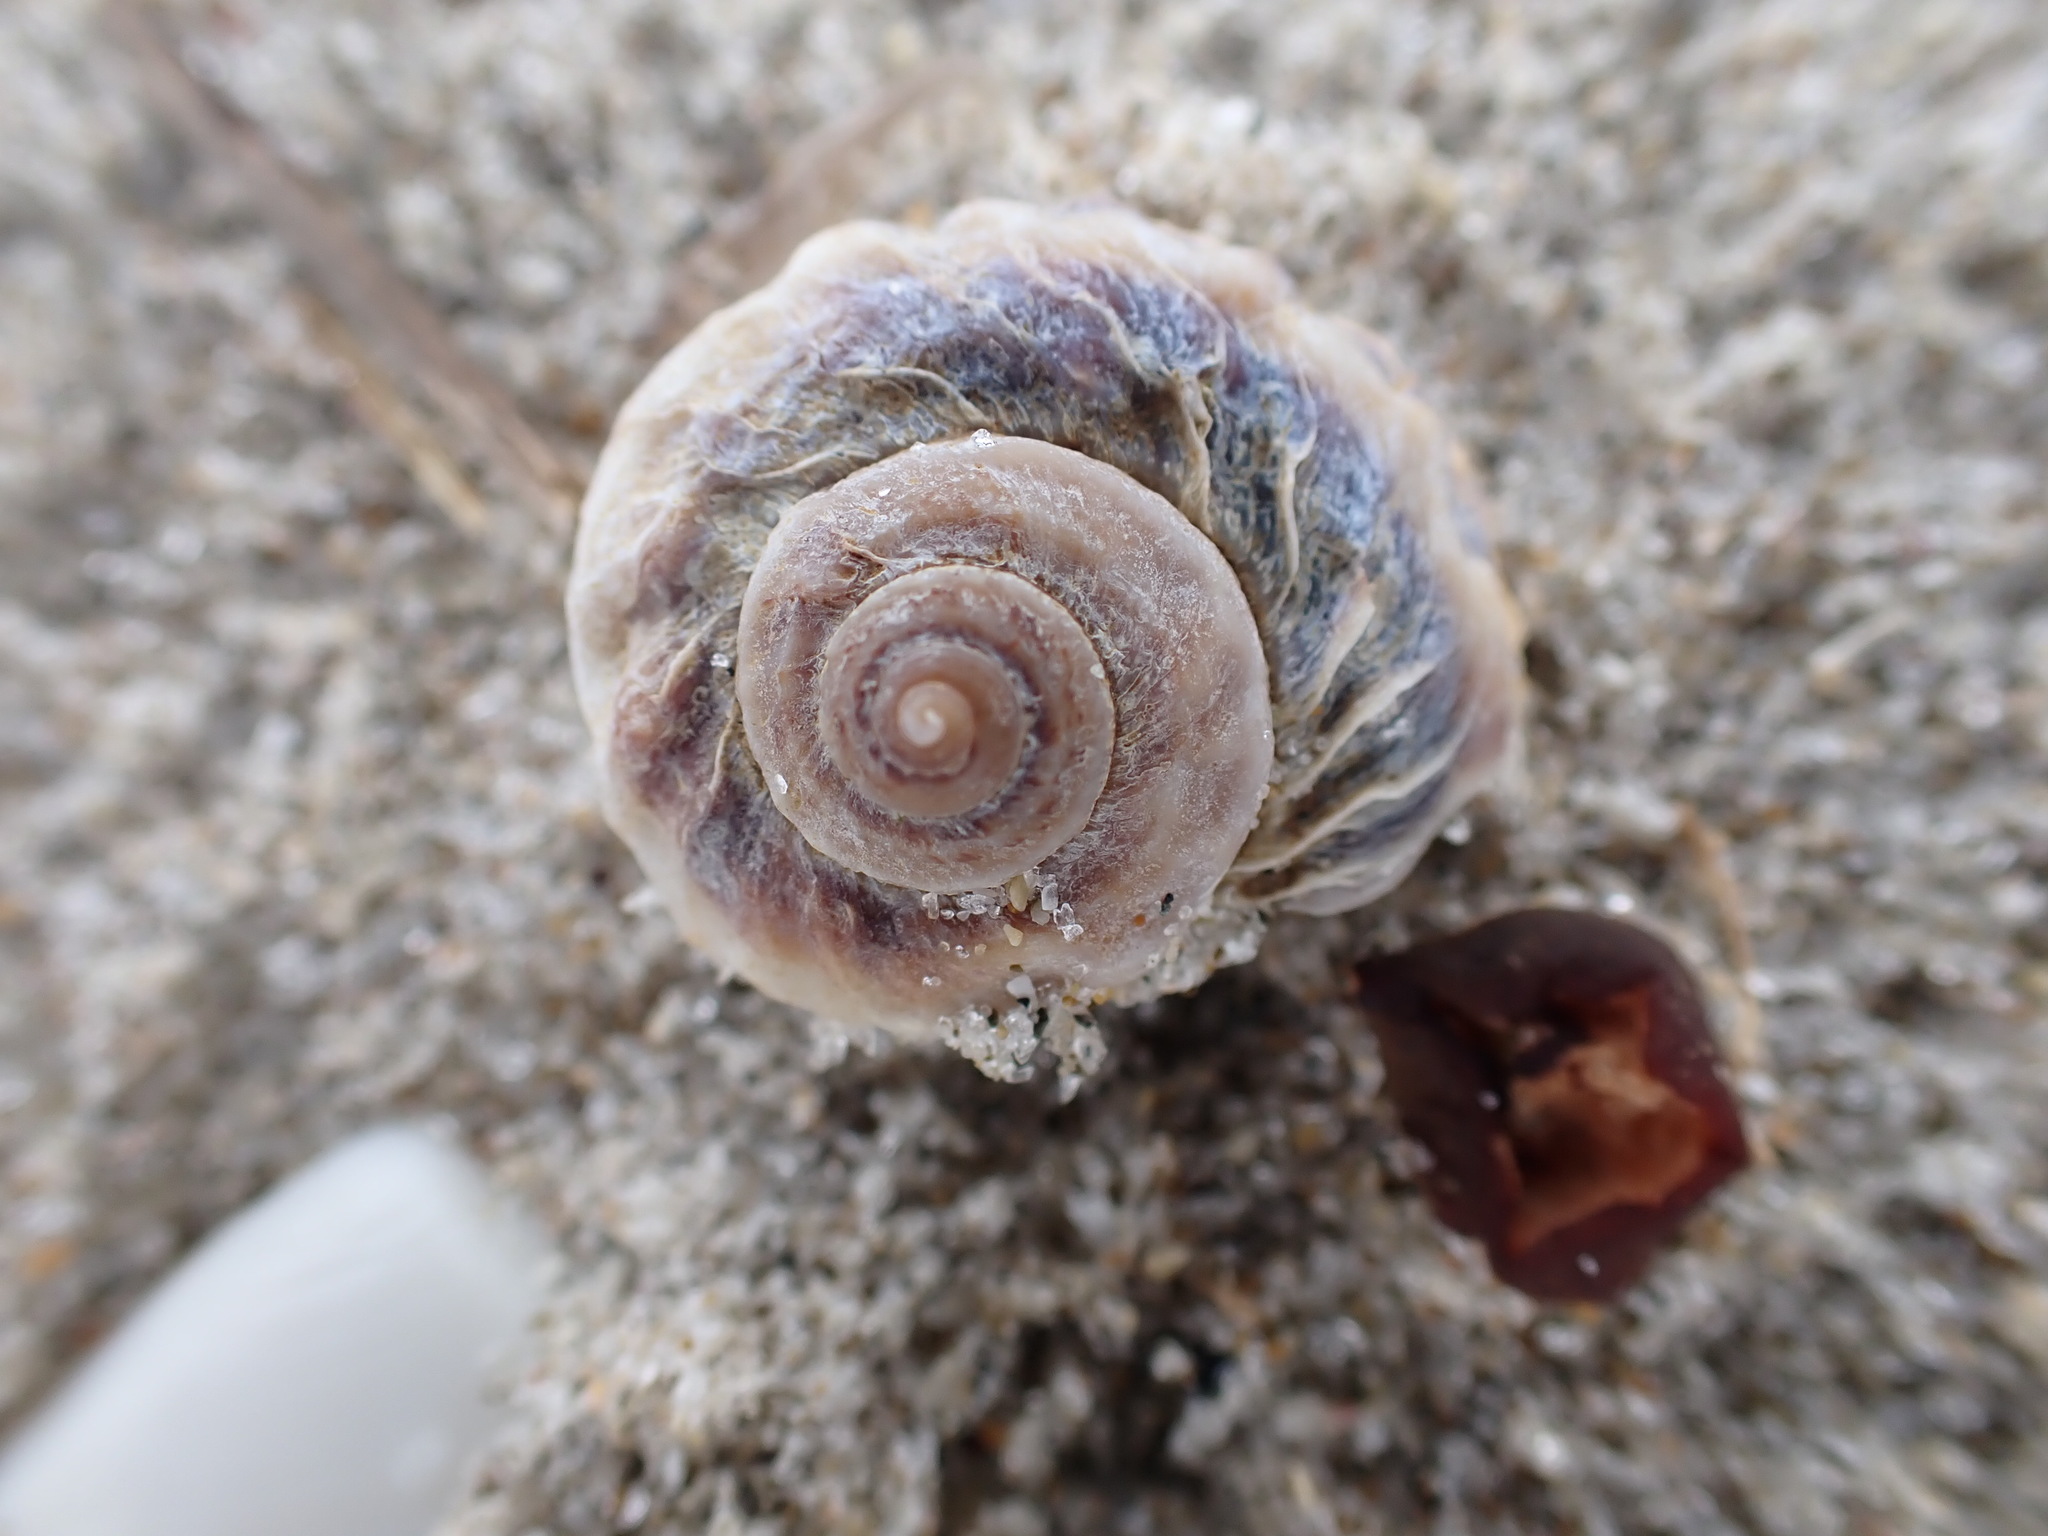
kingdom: Animalia
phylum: Mollusca
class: Gastropoda
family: Amphibolidae
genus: Amphibola
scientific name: Amphibola crenata
